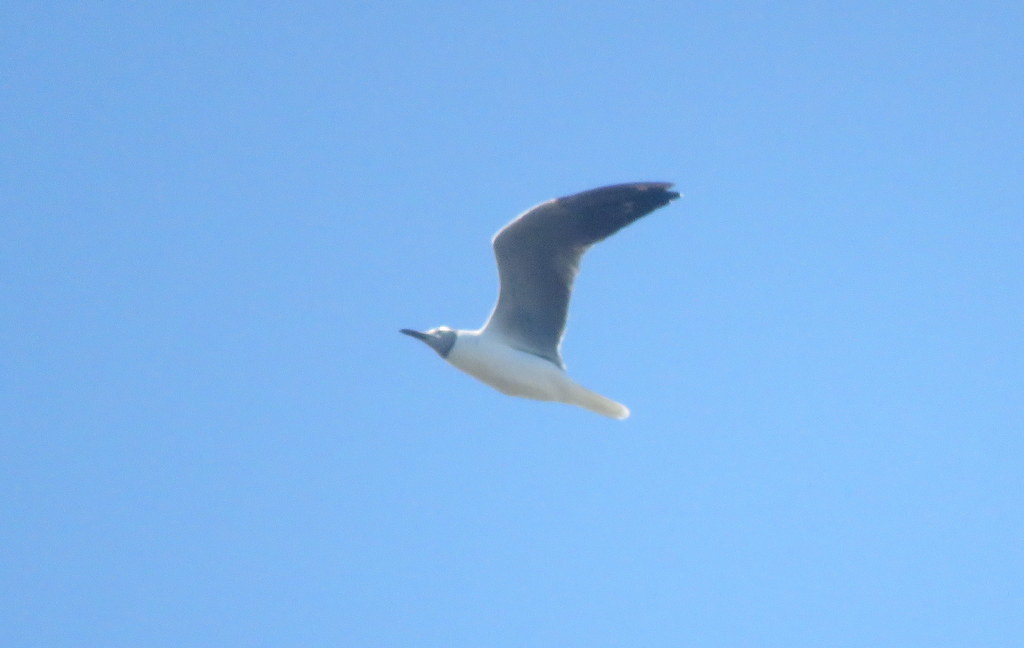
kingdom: Animalia
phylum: Chordata
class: Aves
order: Charadriiformes
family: Laridae
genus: Chroicocephalus
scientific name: Chroicocephalus cirrocephalus
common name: Grey-headed gull
